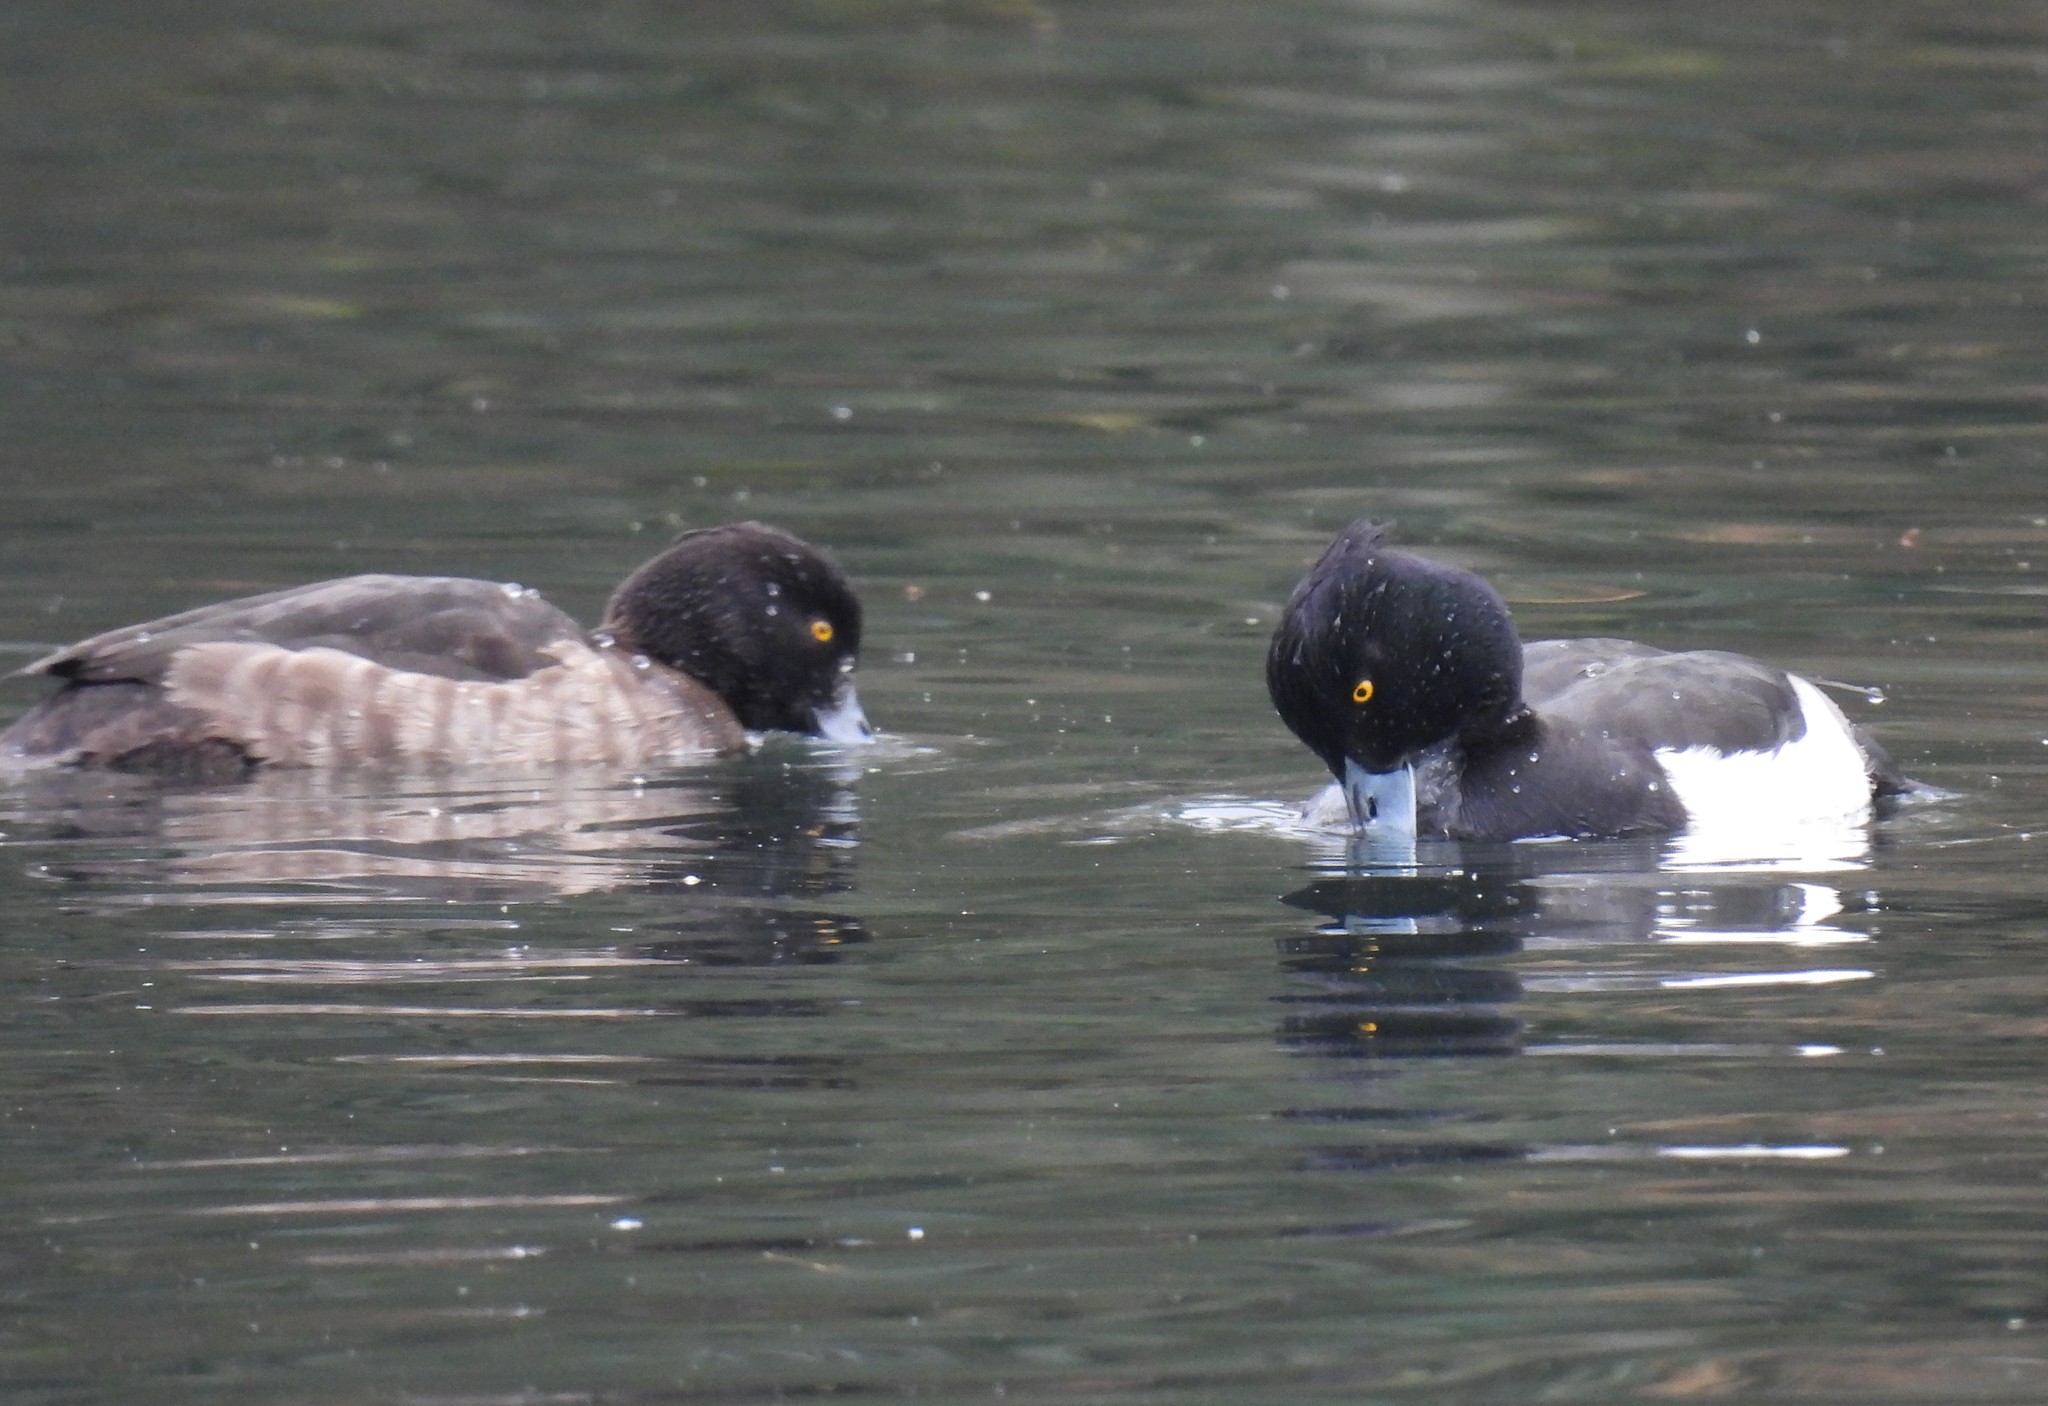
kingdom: Animalia
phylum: Chordata
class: Aves
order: Anseriformes
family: Anatidae
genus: Aythya
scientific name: Aythya fuligula
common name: Tufted duck
